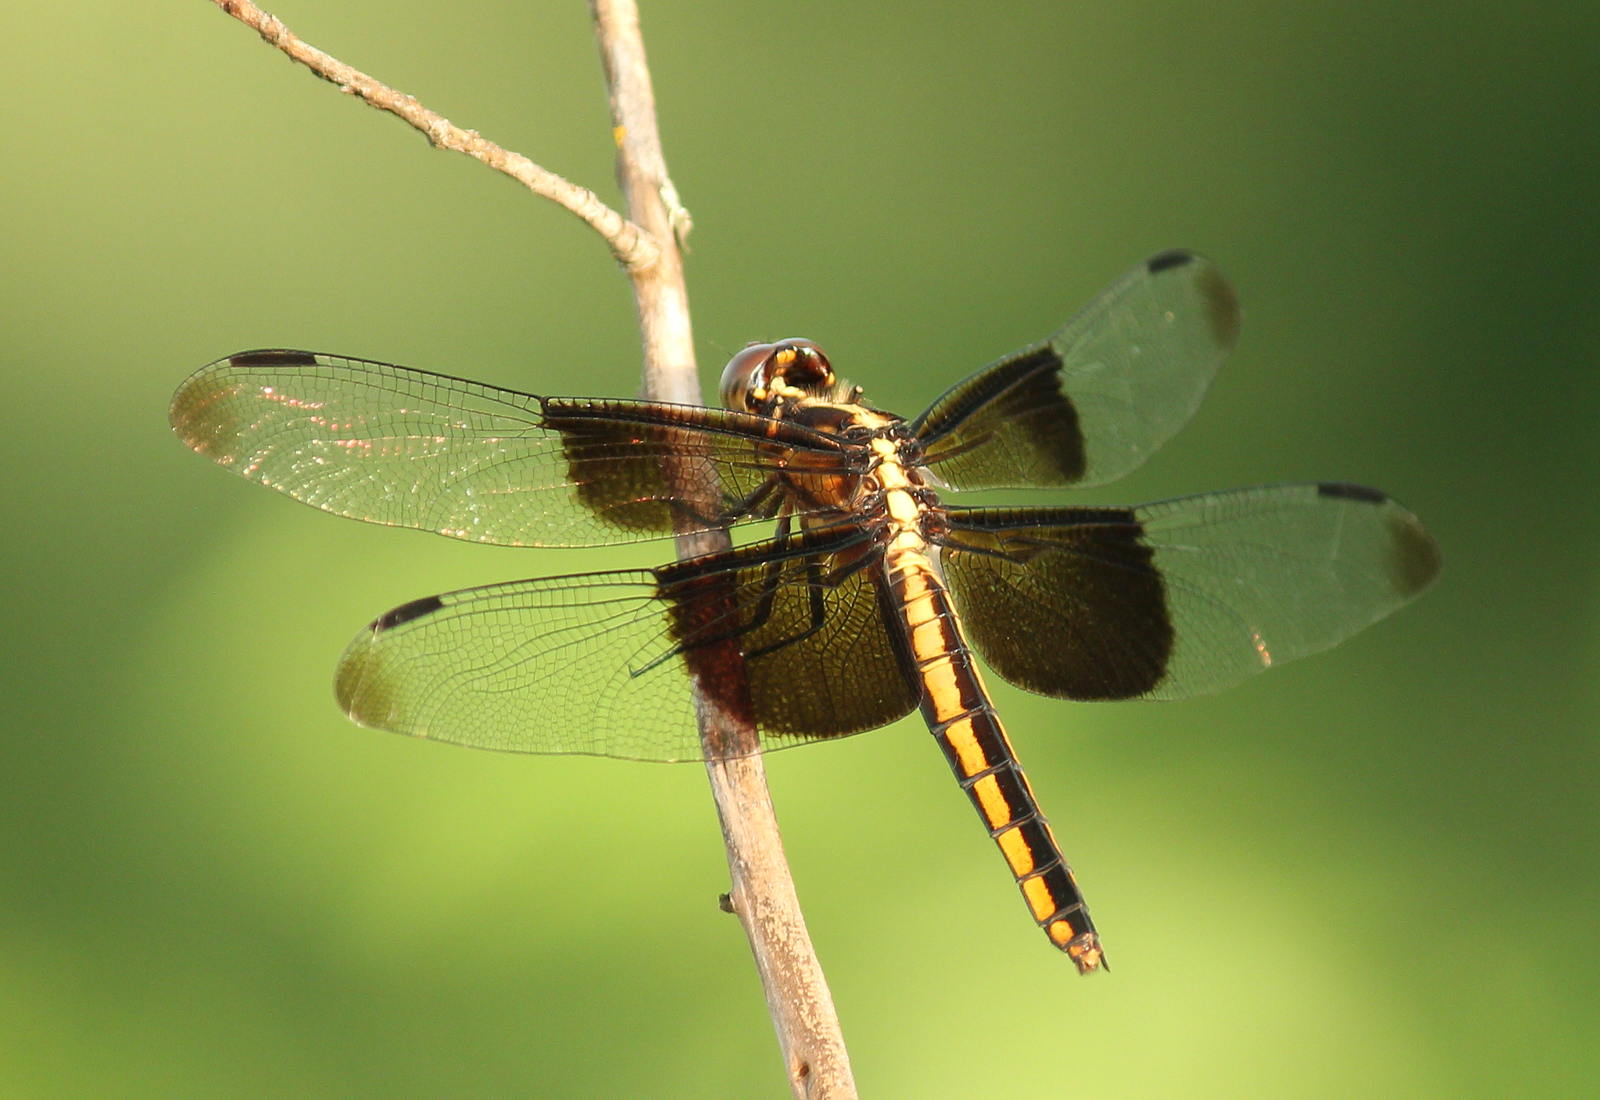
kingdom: Animalia
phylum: Arthropoda
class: Insecta
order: Odonata
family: Libellulidae
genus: Libellula
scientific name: Libellula luctuosa
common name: Widow skimmer
